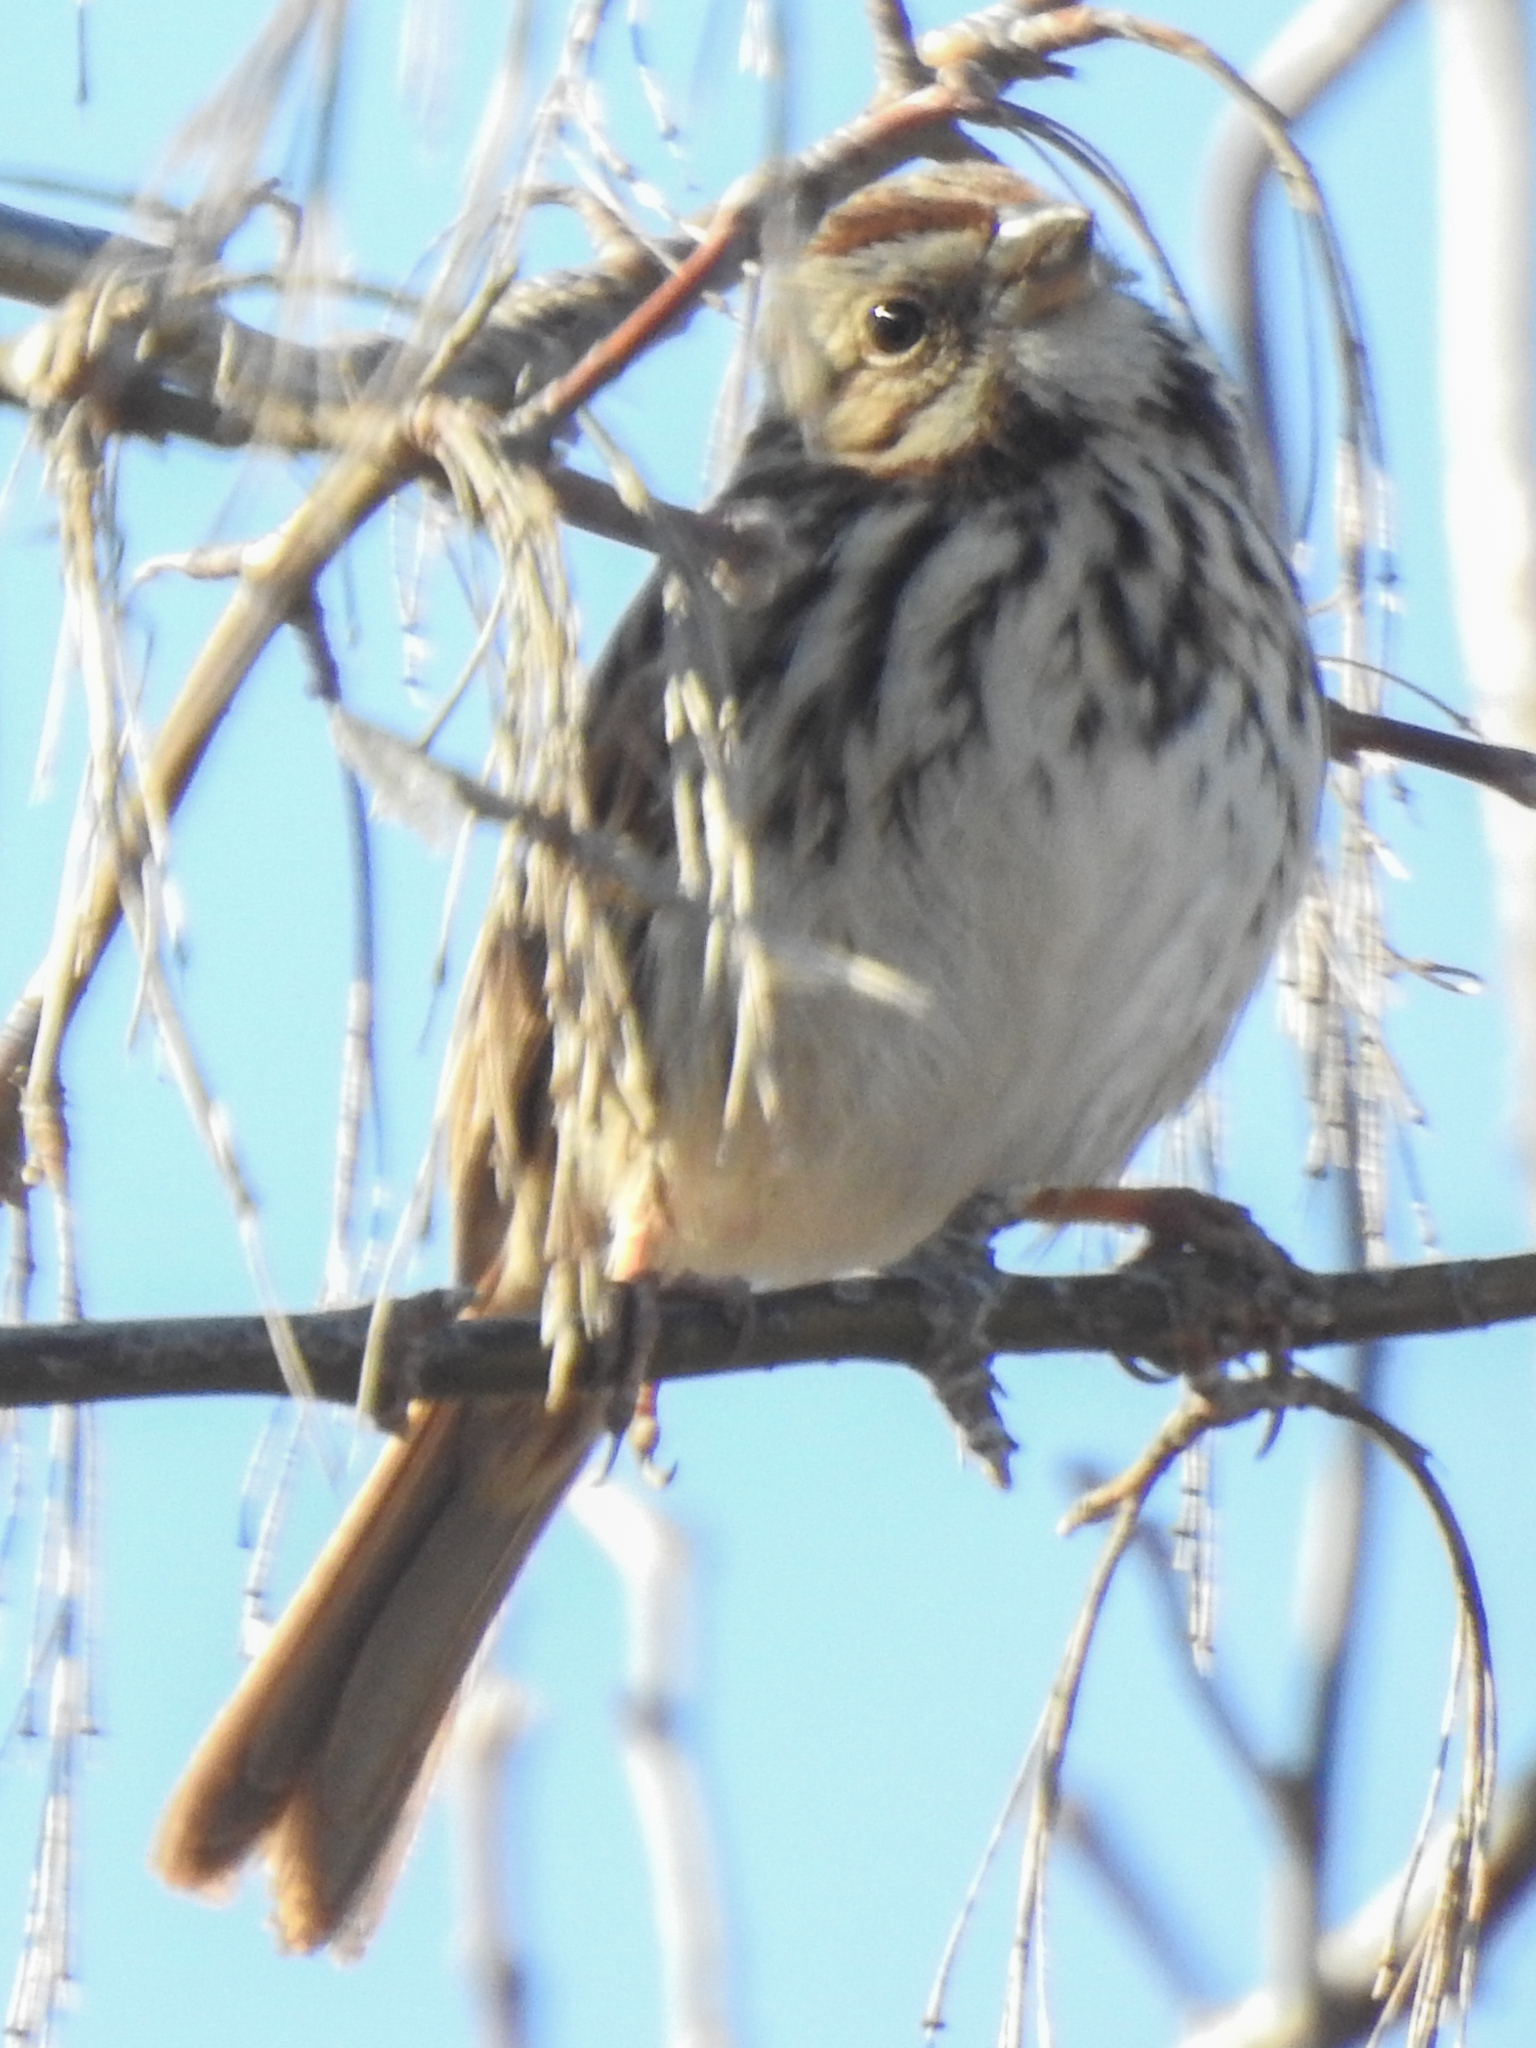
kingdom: Animalia
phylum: Chordata
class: Aves
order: Passeriformes
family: Passerellidae
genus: Melospiza
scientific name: Melospiza melodia
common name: Song sparrow
